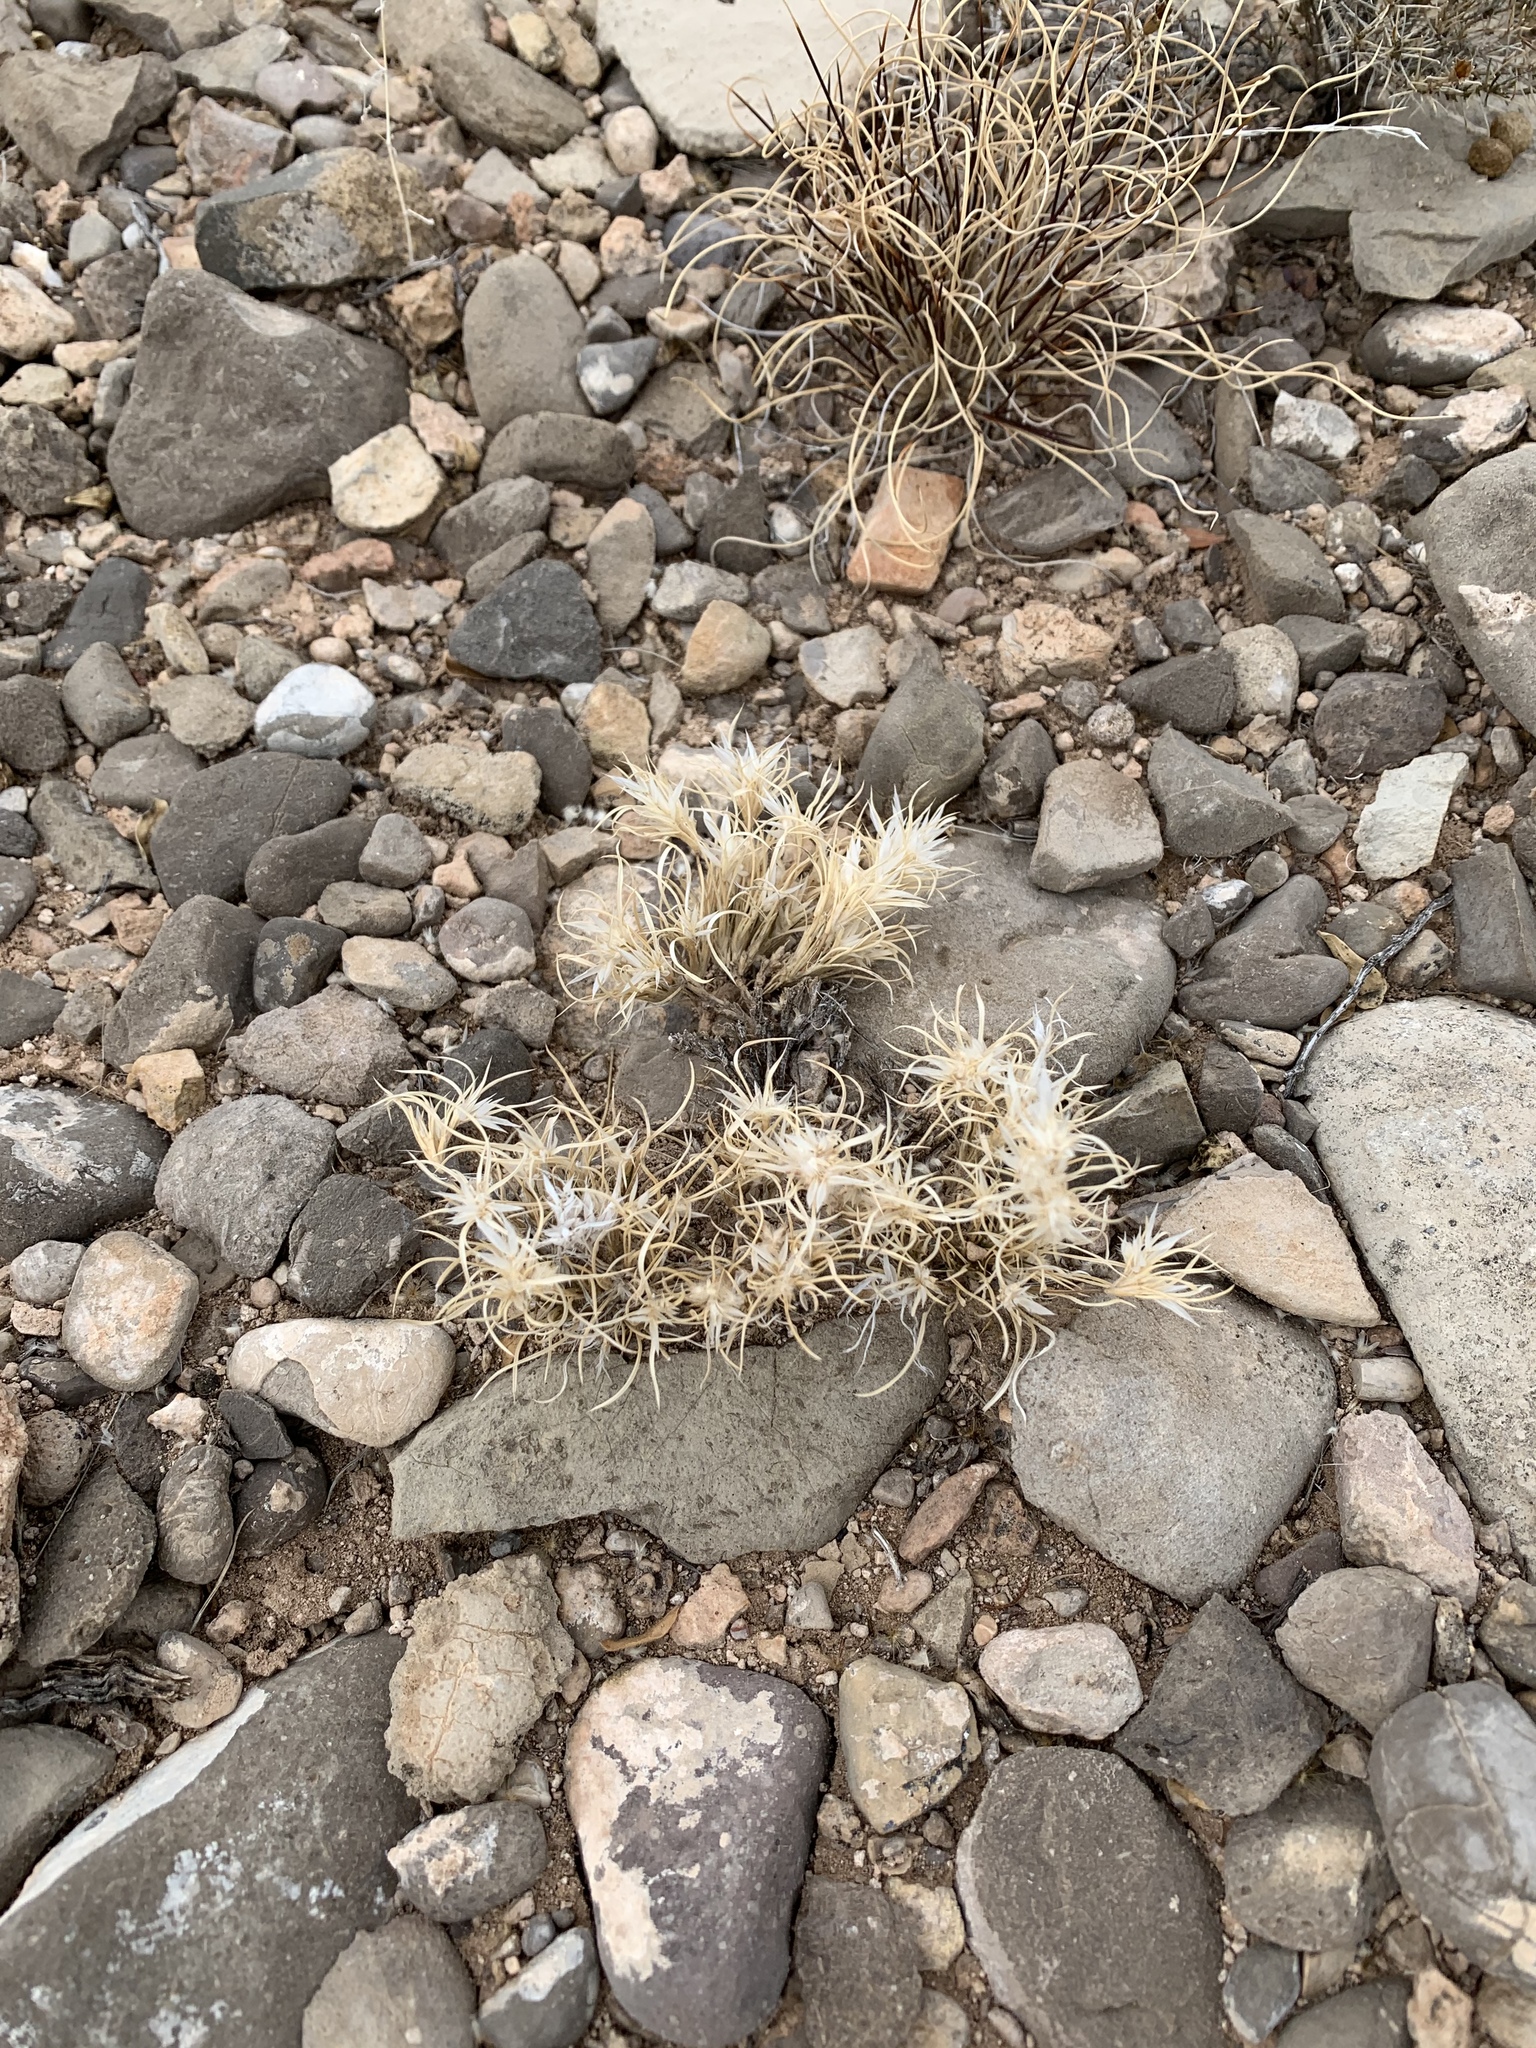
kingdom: Plantae
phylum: Tracheophyta
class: Liliopsida
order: Poales
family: Poaceae
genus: Dasyochloa
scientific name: Dasyochloa pulchella
